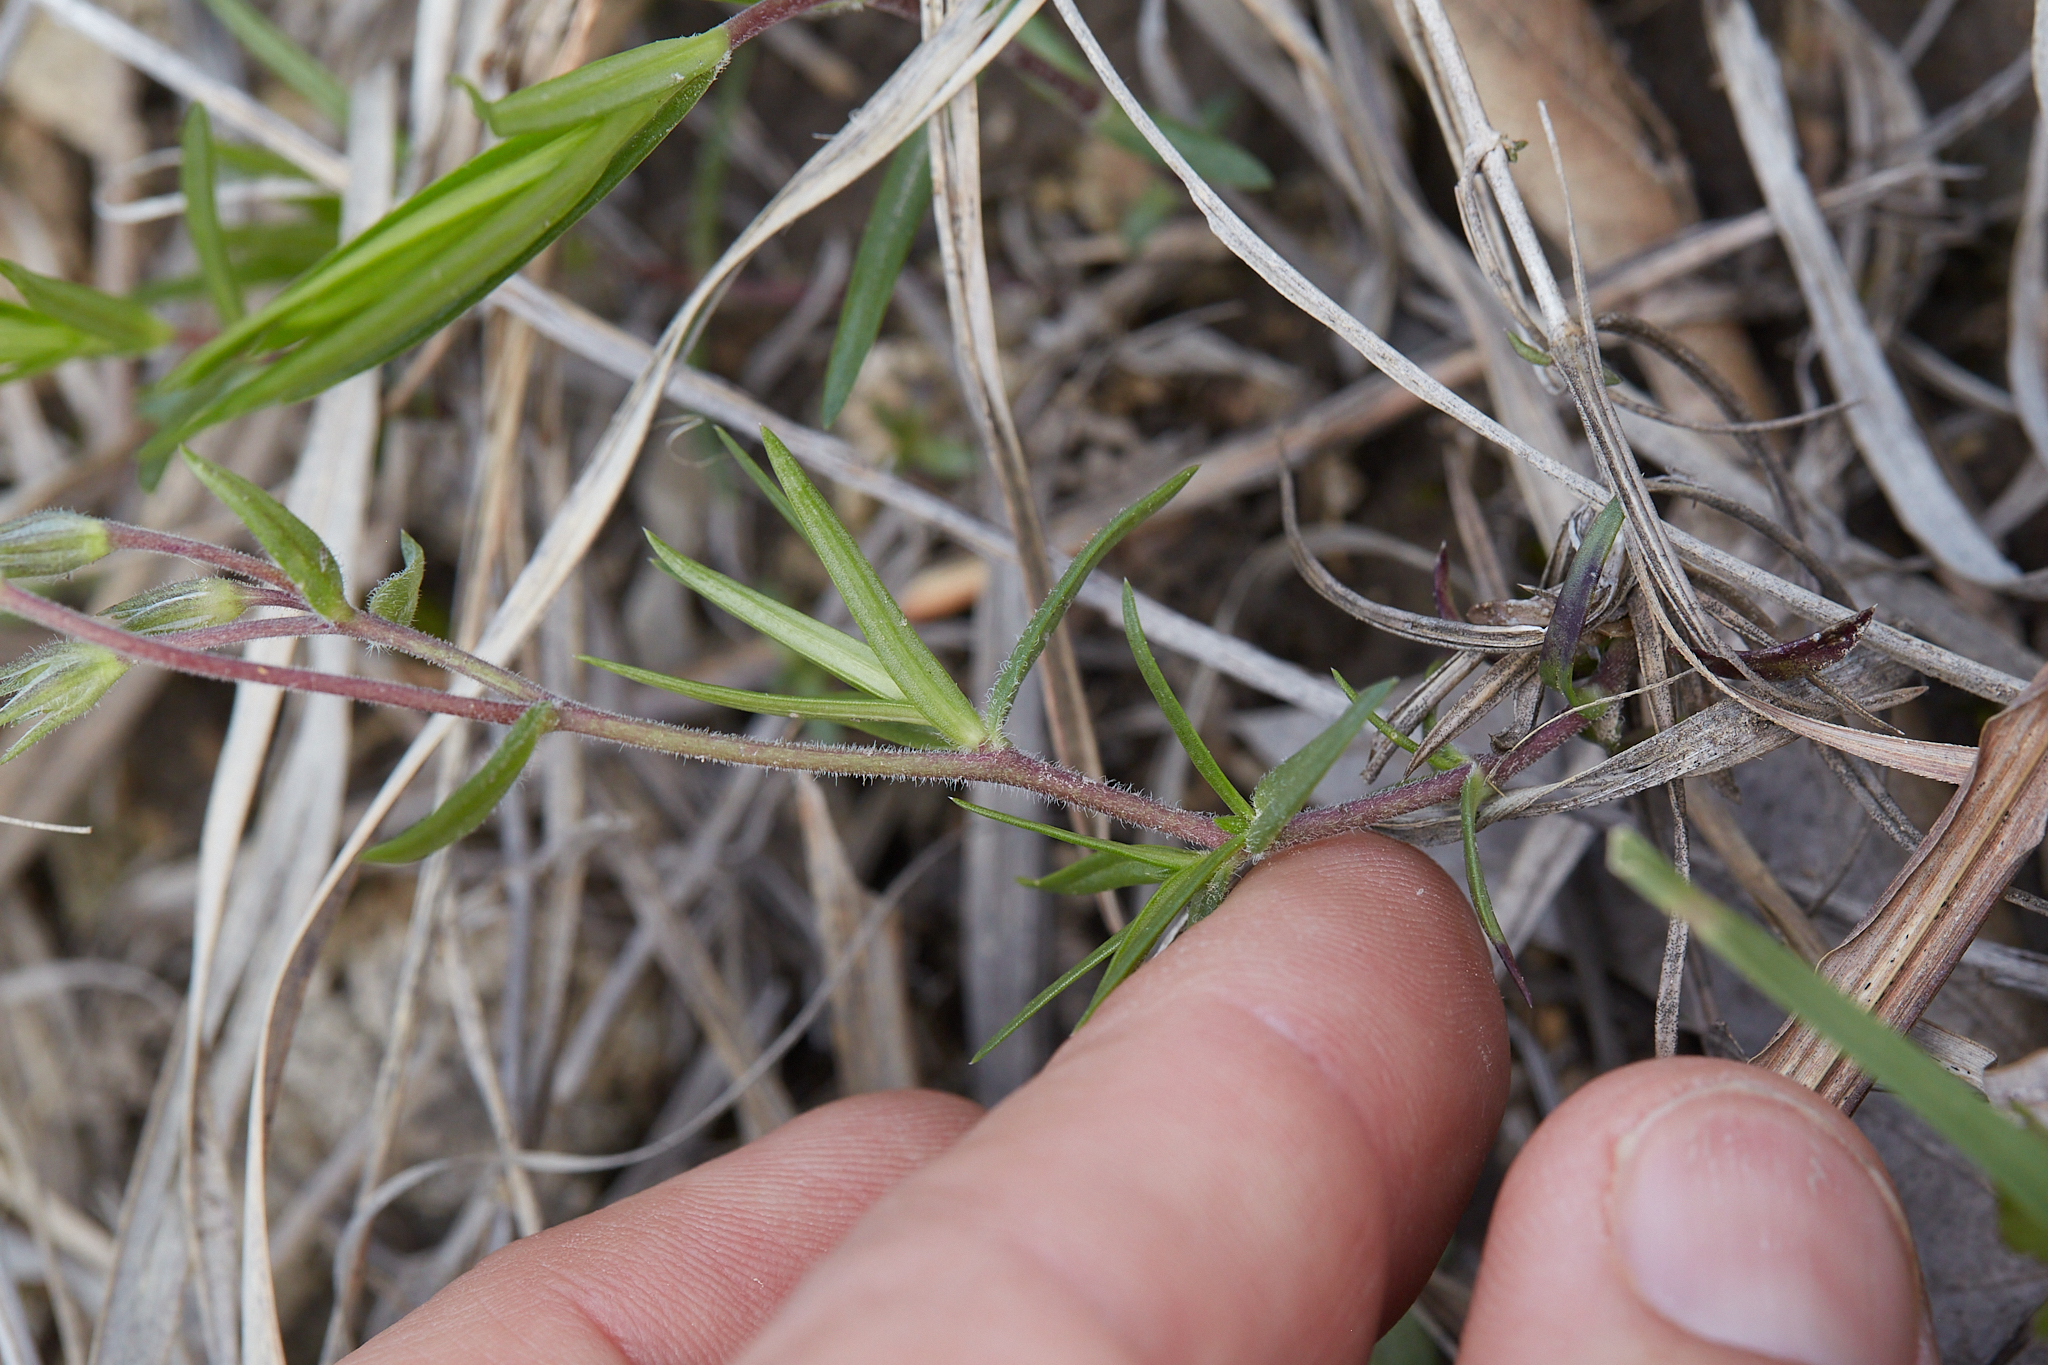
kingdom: Plantae
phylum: Tracheophyta
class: Magnoliopsida
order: Ericales
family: Polemoniaceae
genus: Phlox
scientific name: Phlox bifida
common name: Sand phlox
